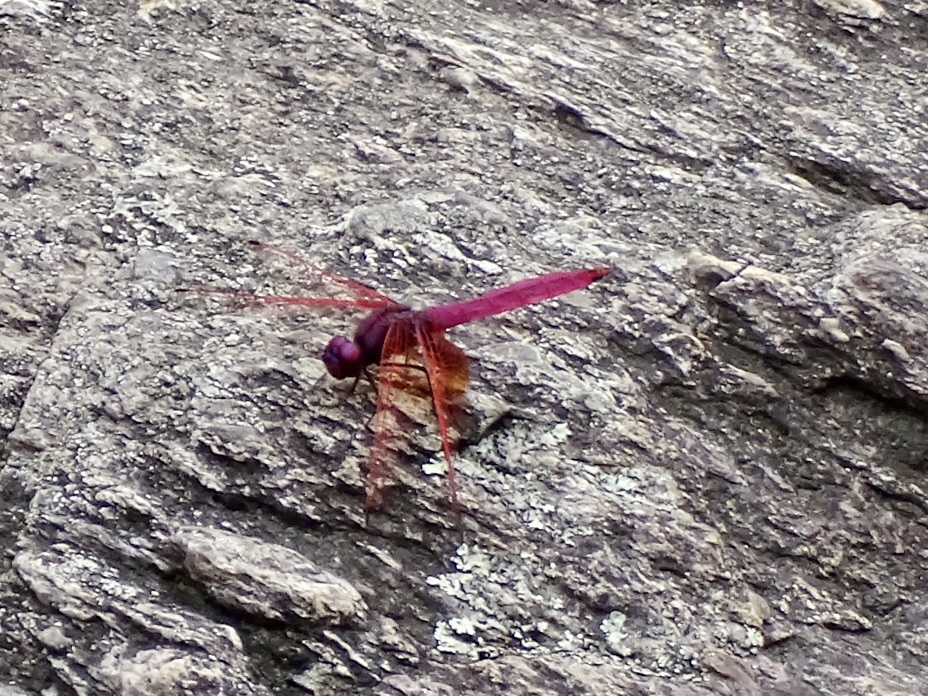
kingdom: Animalia
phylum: Arthropoda
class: Insecta
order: Odonata
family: Libellulidae
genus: Trithemis
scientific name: Trithemis aurora
